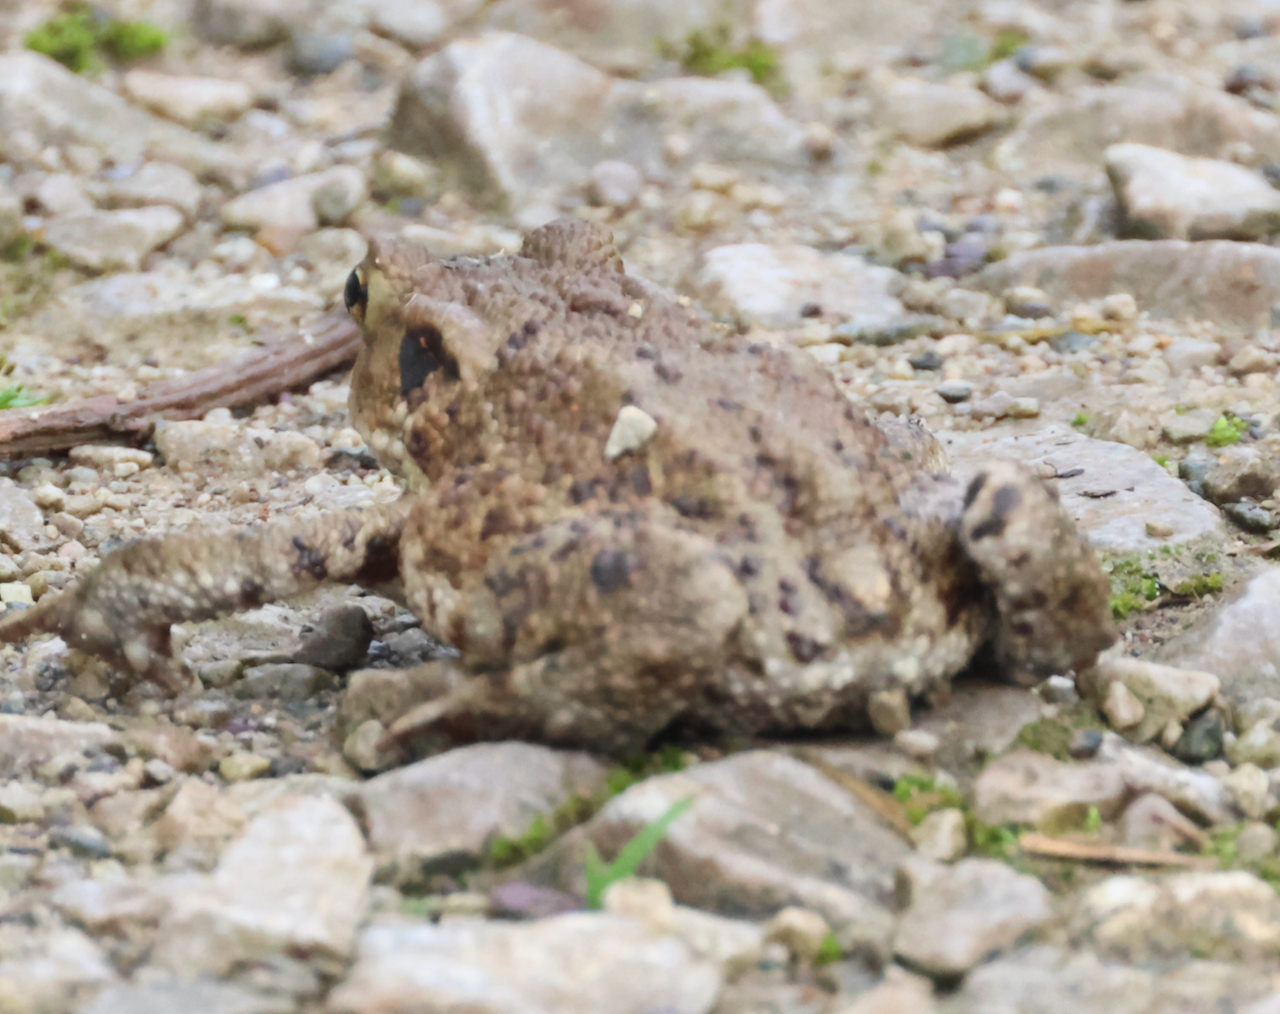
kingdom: Animalia
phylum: Chordata
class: Amphibia
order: Anura
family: Bufonidae
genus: Bufo
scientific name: Bufo bufo
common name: Common toad
